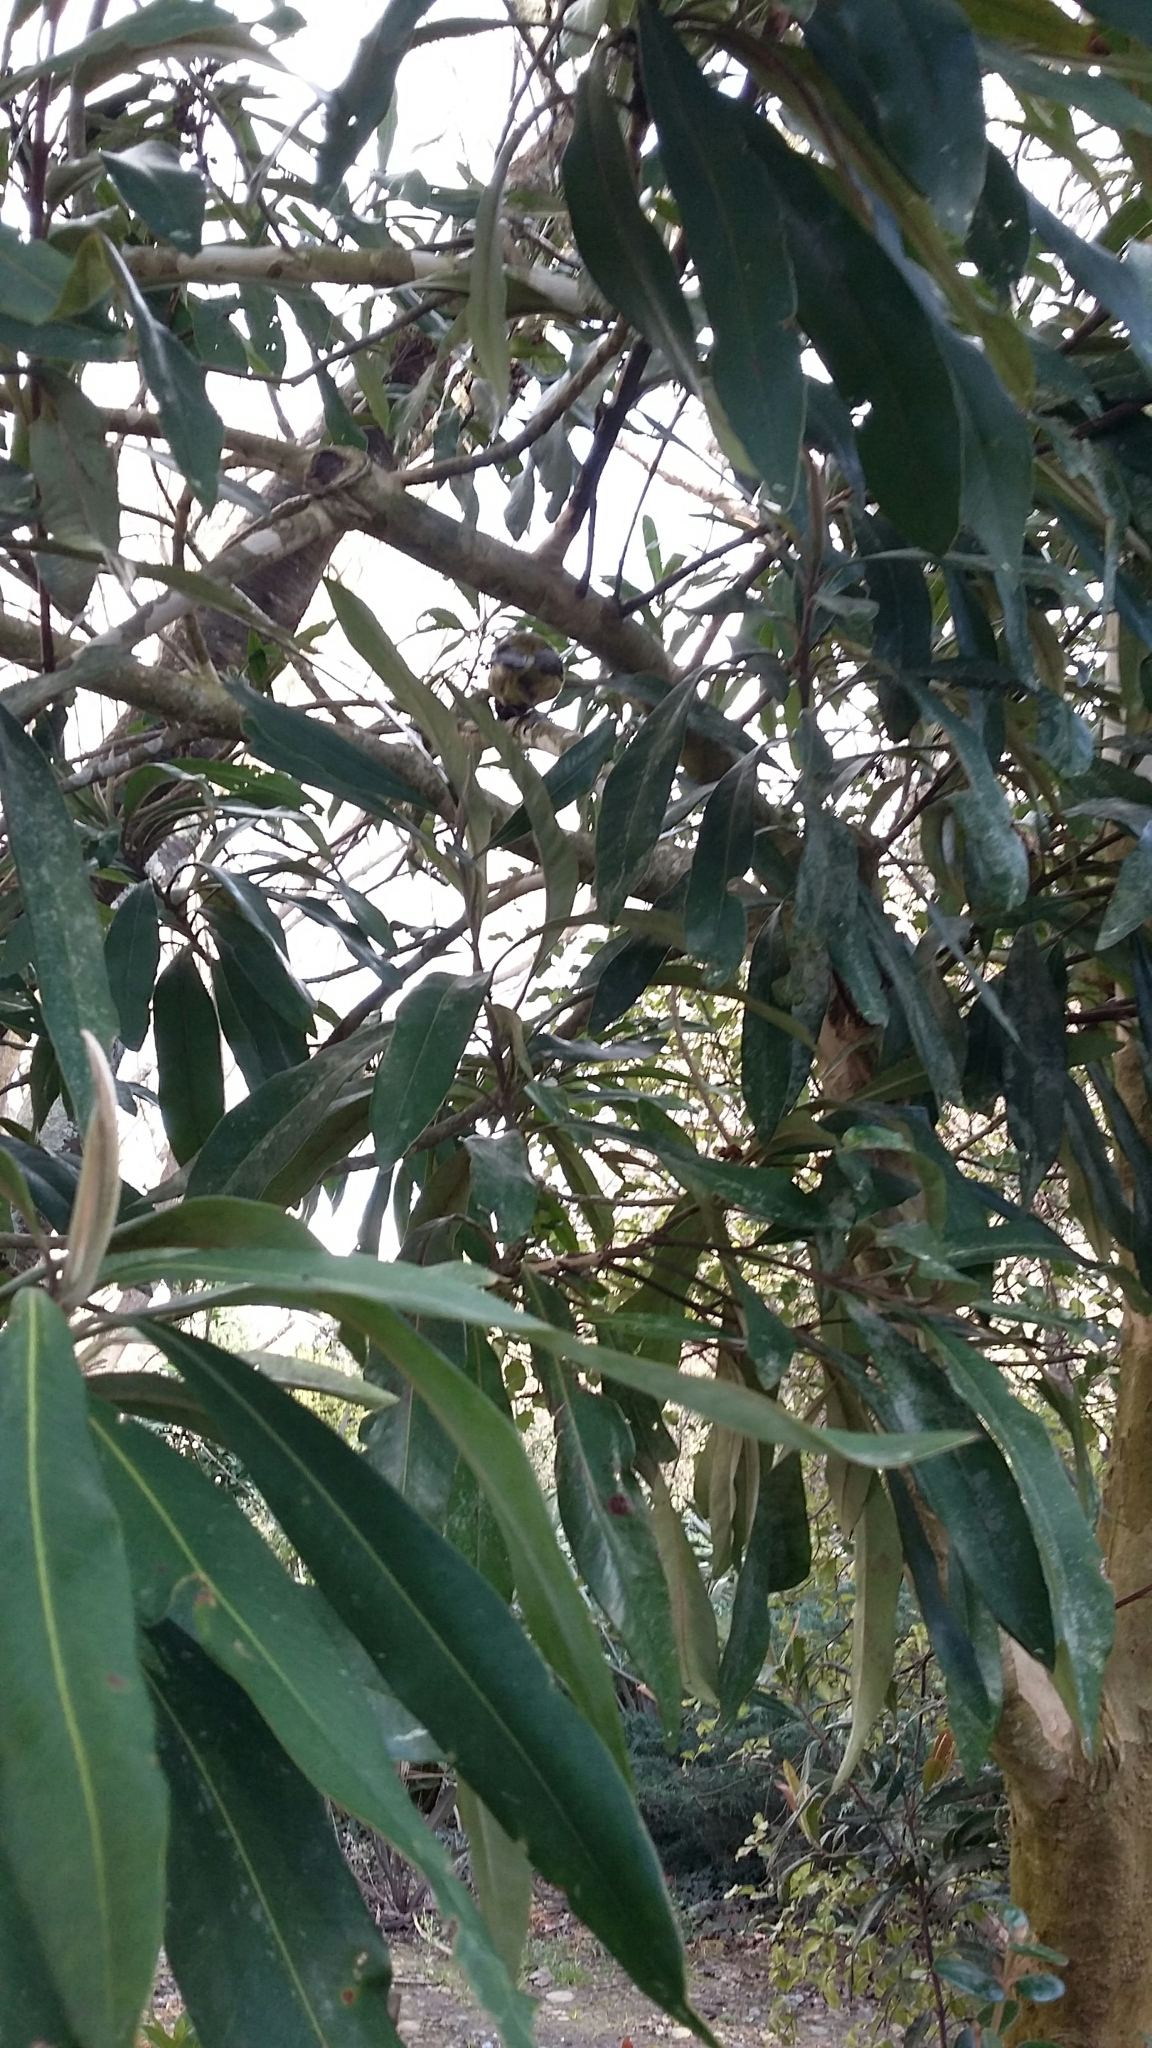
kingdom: Animalia
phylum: Chordata
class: Aves
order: Passeriformes
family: Meliphagidae
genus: Anthornis
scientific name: Anthornis melanura
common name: New zealand bellbird
